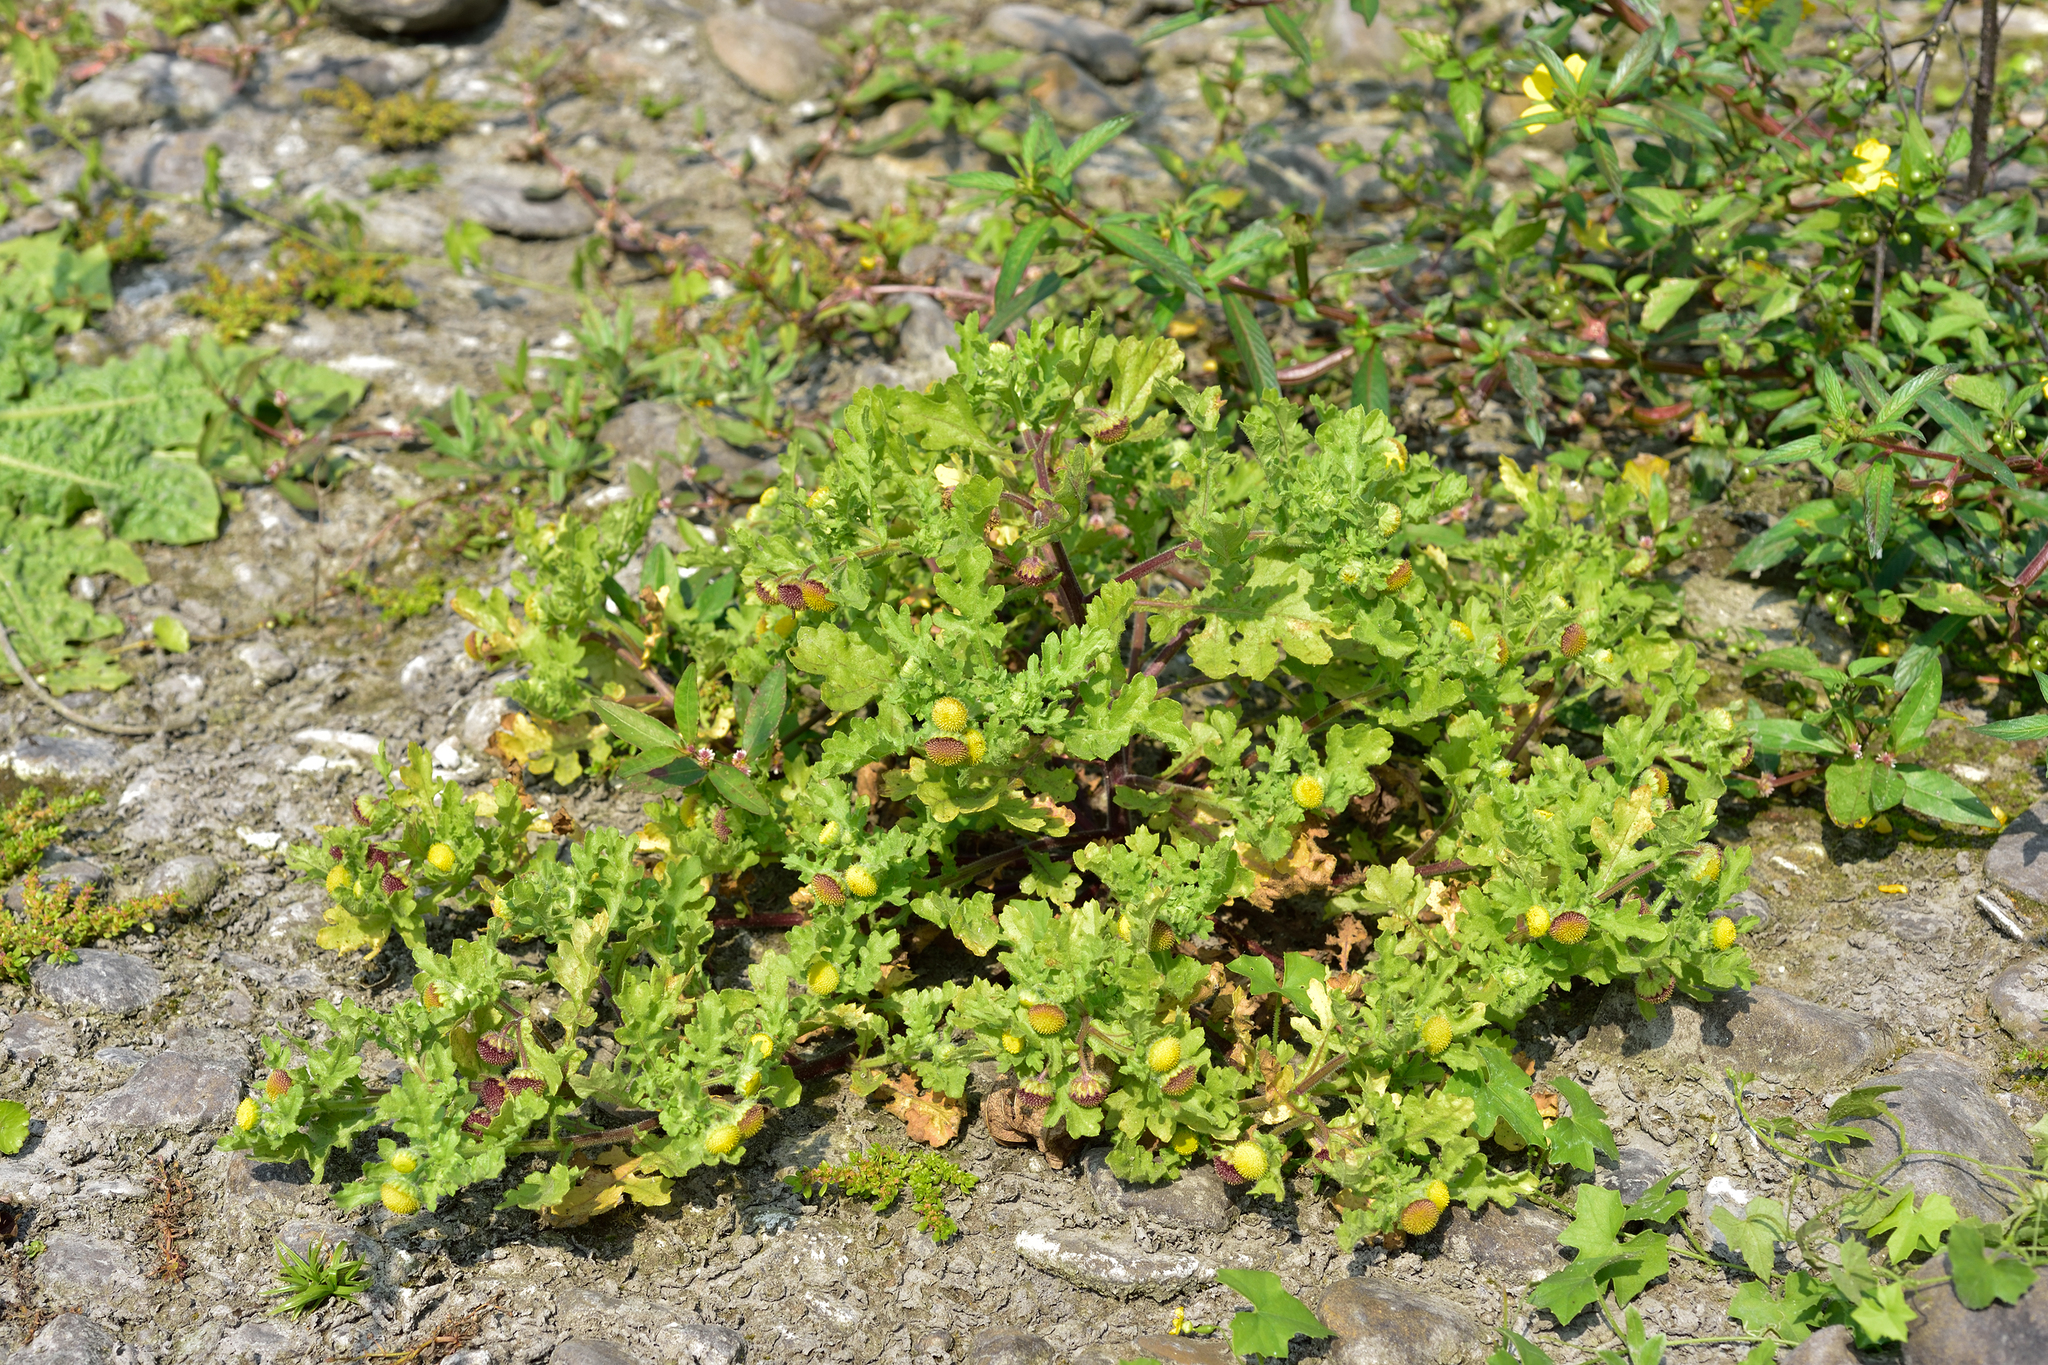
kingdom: Plantae
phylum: Tracheophyta
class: Magnoliopsida
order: Asterales
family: Asteraceae
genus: Grangea
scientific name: Grangea maderaspatana
